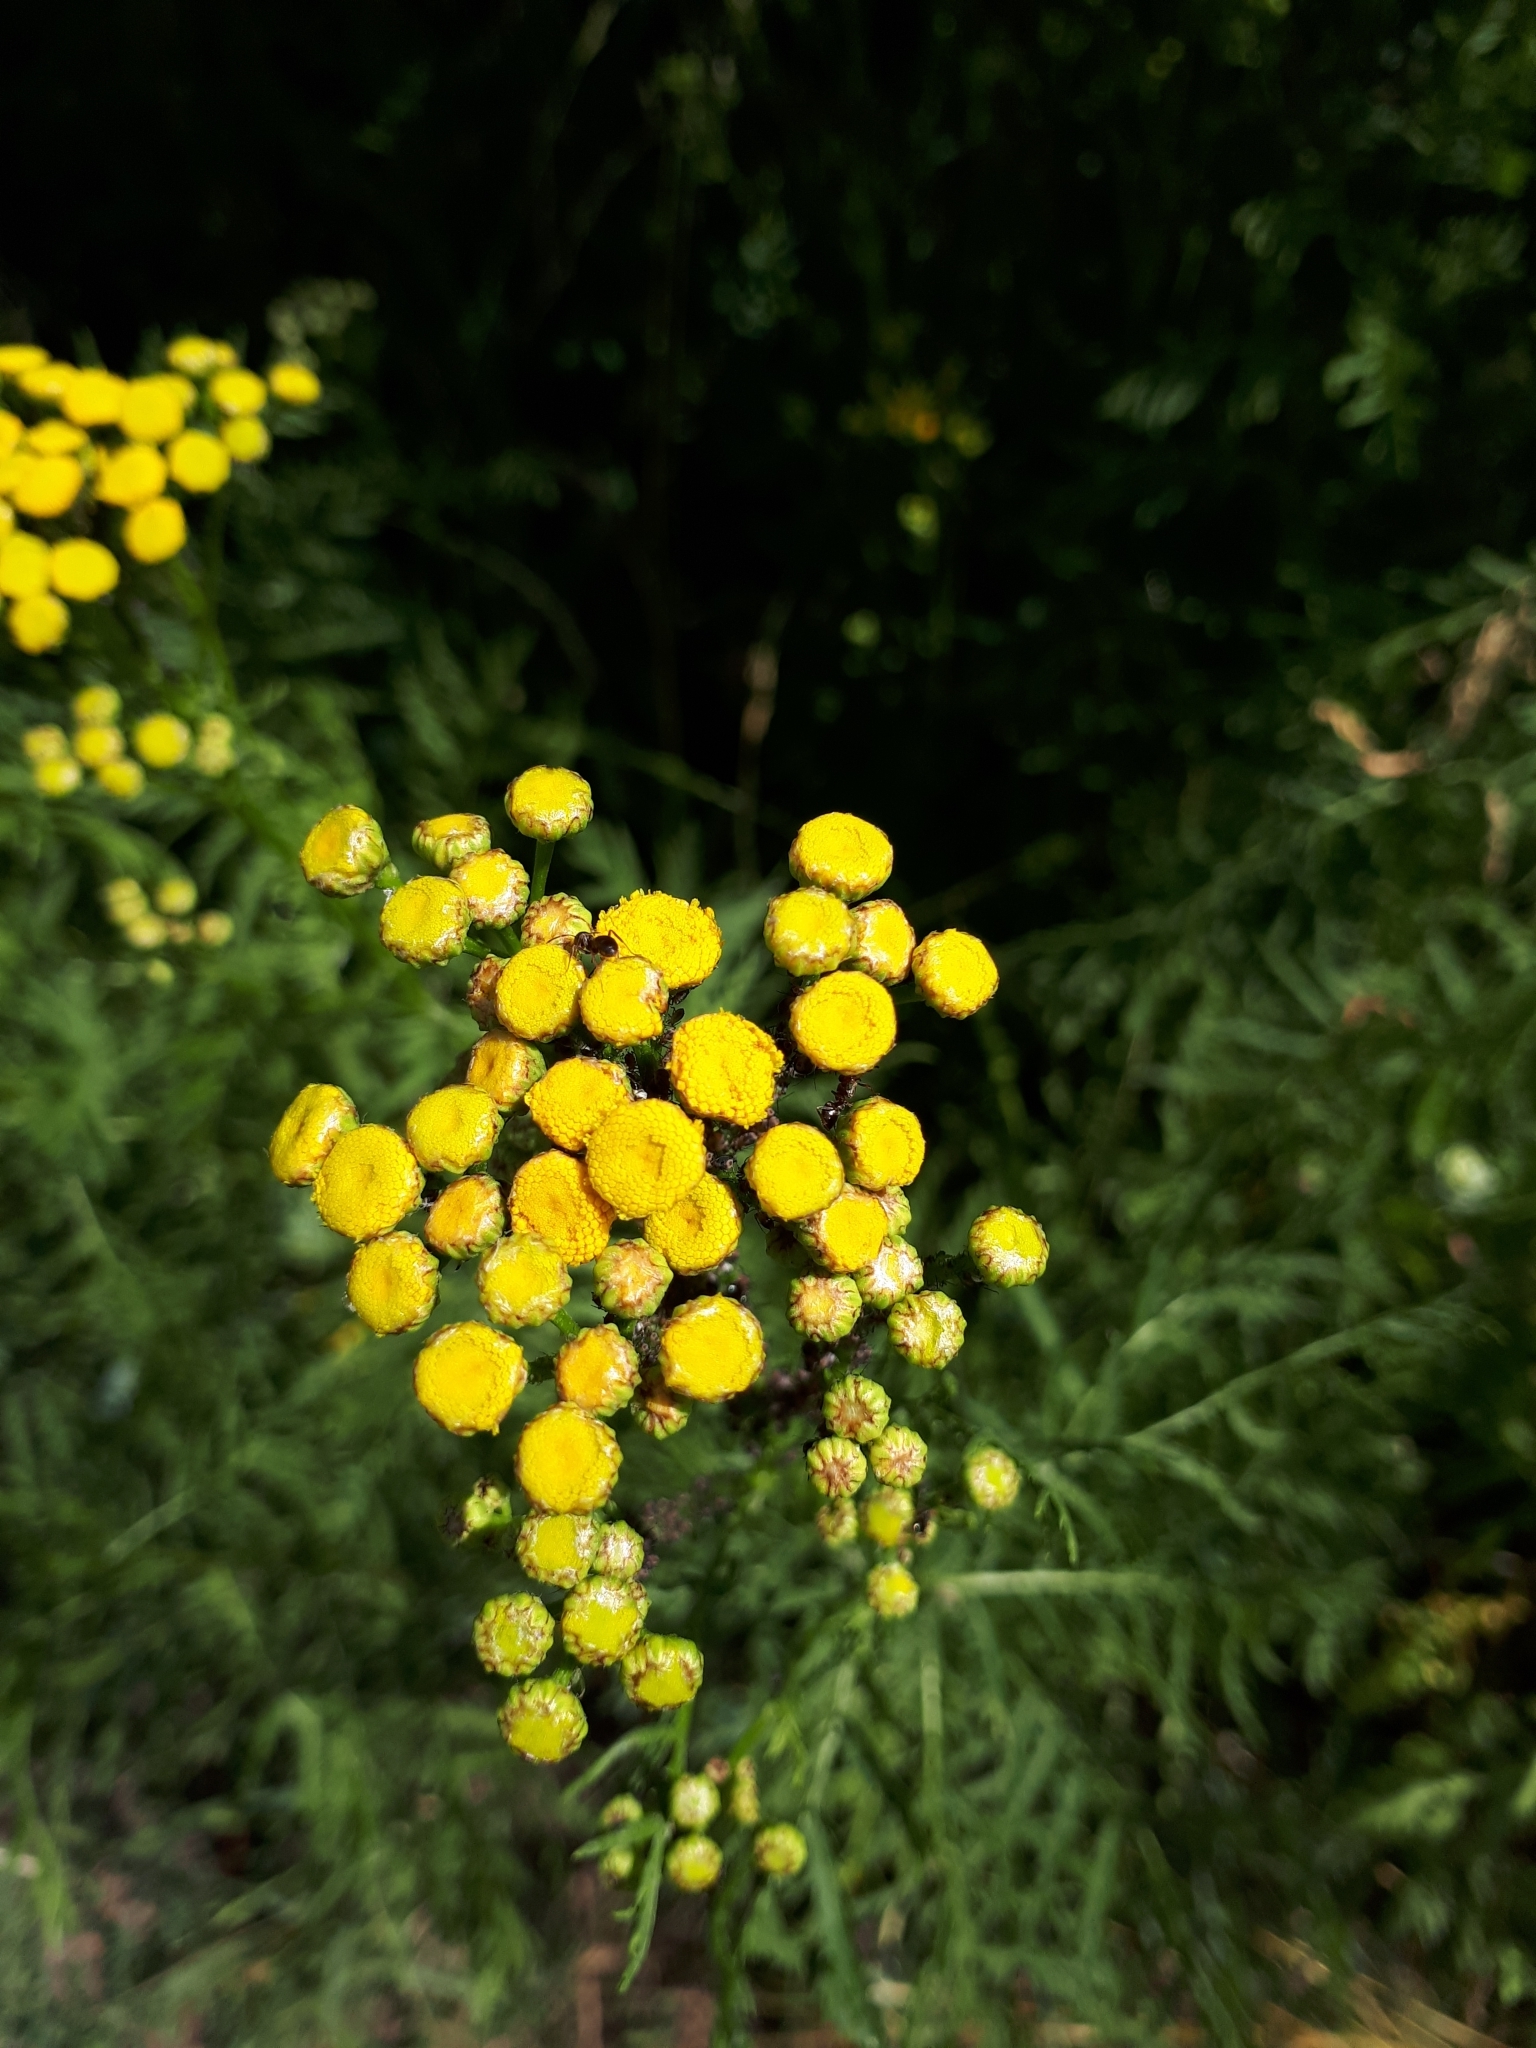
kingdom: Plantae
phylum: Tracheophyta
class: Magnoliopsida
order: Asterales
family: Asteraceae
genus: Tanacetum
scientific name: Tanacetum vulgare
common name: Common tansy
